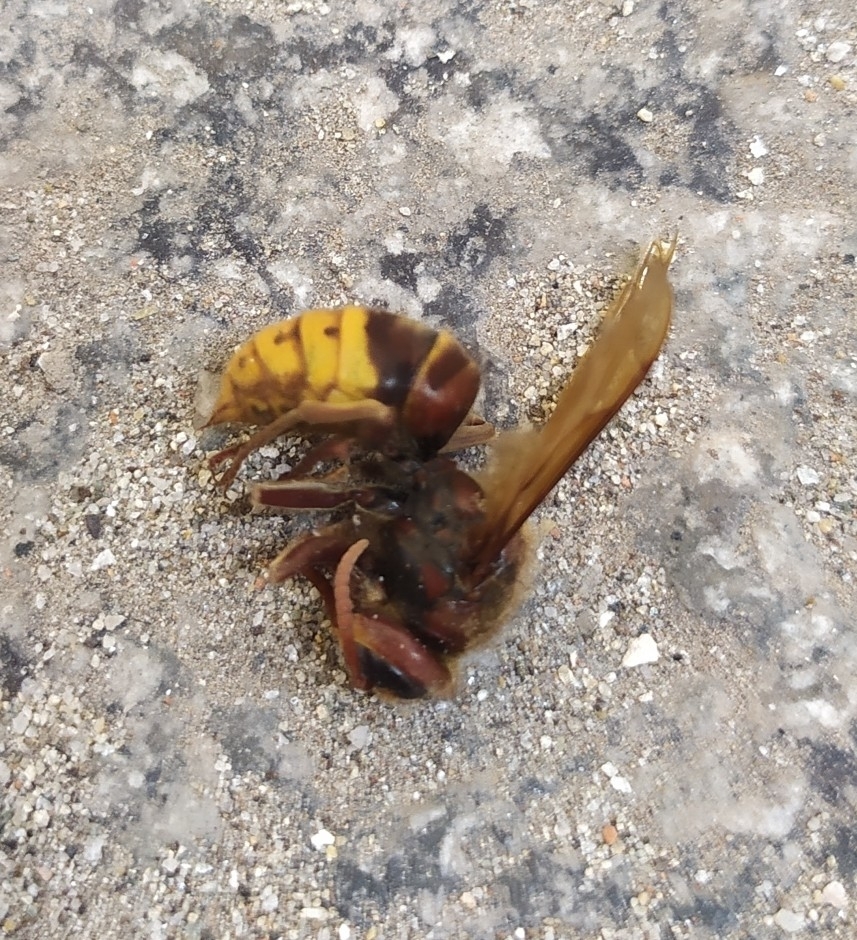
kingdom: Animalia
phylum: Arthropoda
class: Insecta
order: Hymenoptera
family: Vespidae
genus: Vespa
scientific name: Vespa crabro
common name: Hornet
